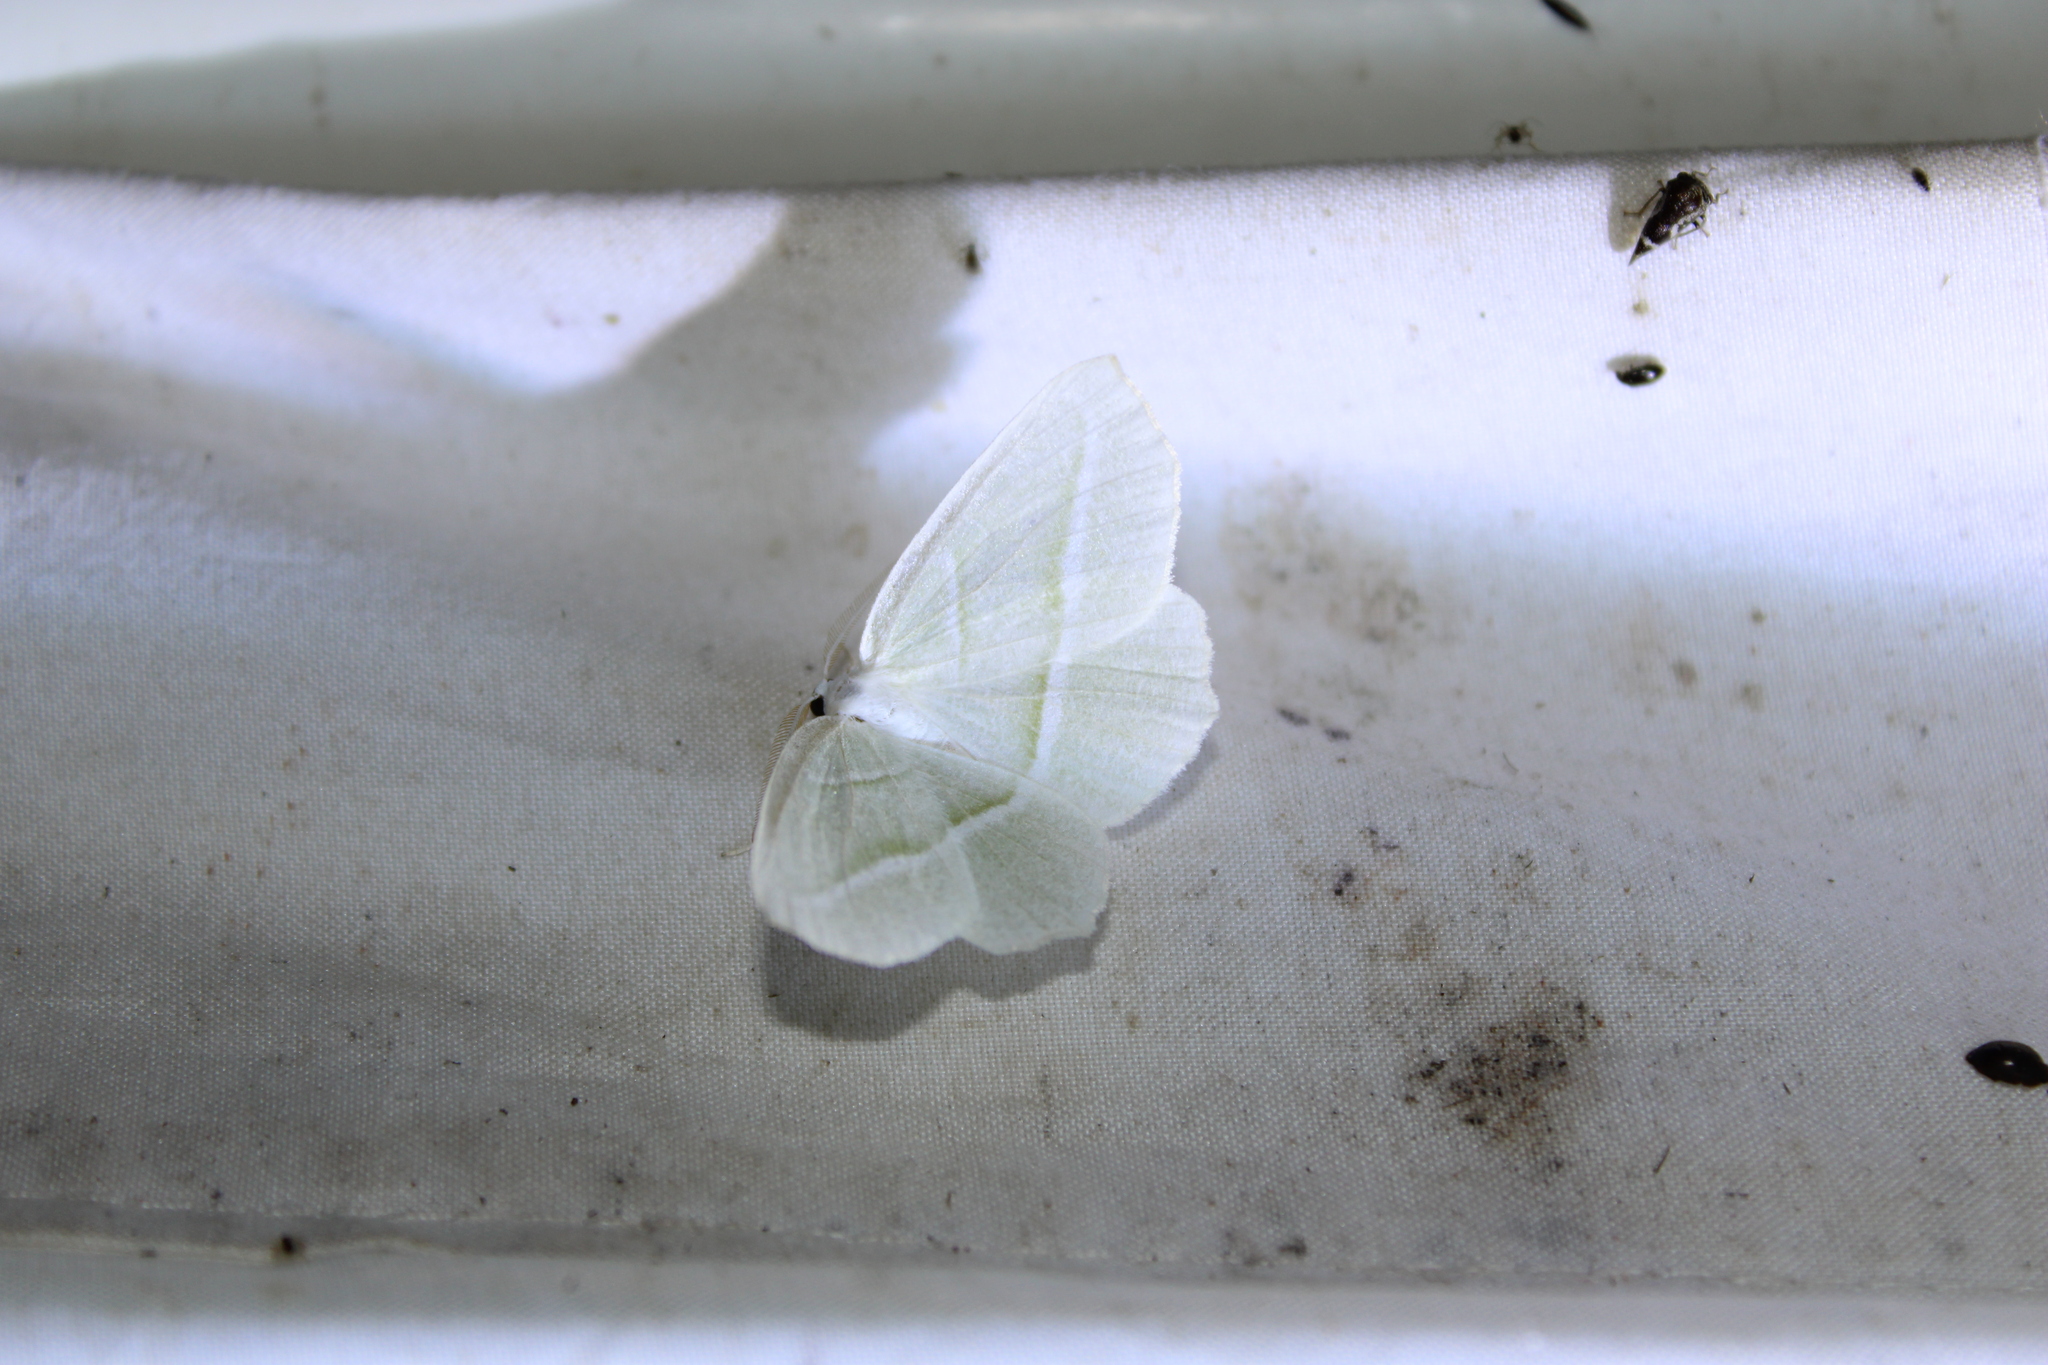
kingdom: Animalia
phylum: Arthropoda
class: Insecta
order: Lepidoptera
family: Geometridae
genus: Campaea
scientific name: Campaea perlata
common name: Fringed looper
